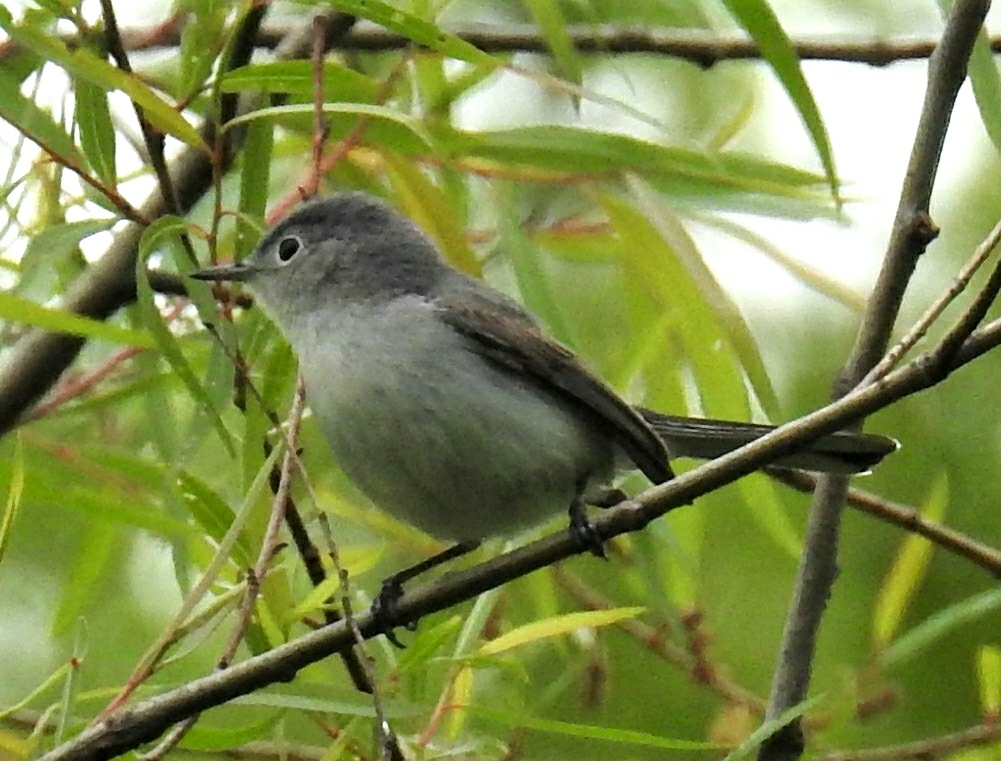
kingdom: Animalia
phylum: Chordata
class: Aves
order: Passeriformes
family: Polioptilidae
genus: Polioptila
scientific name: Polioptila caerulea
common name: Blue-gray gnatcatcher
